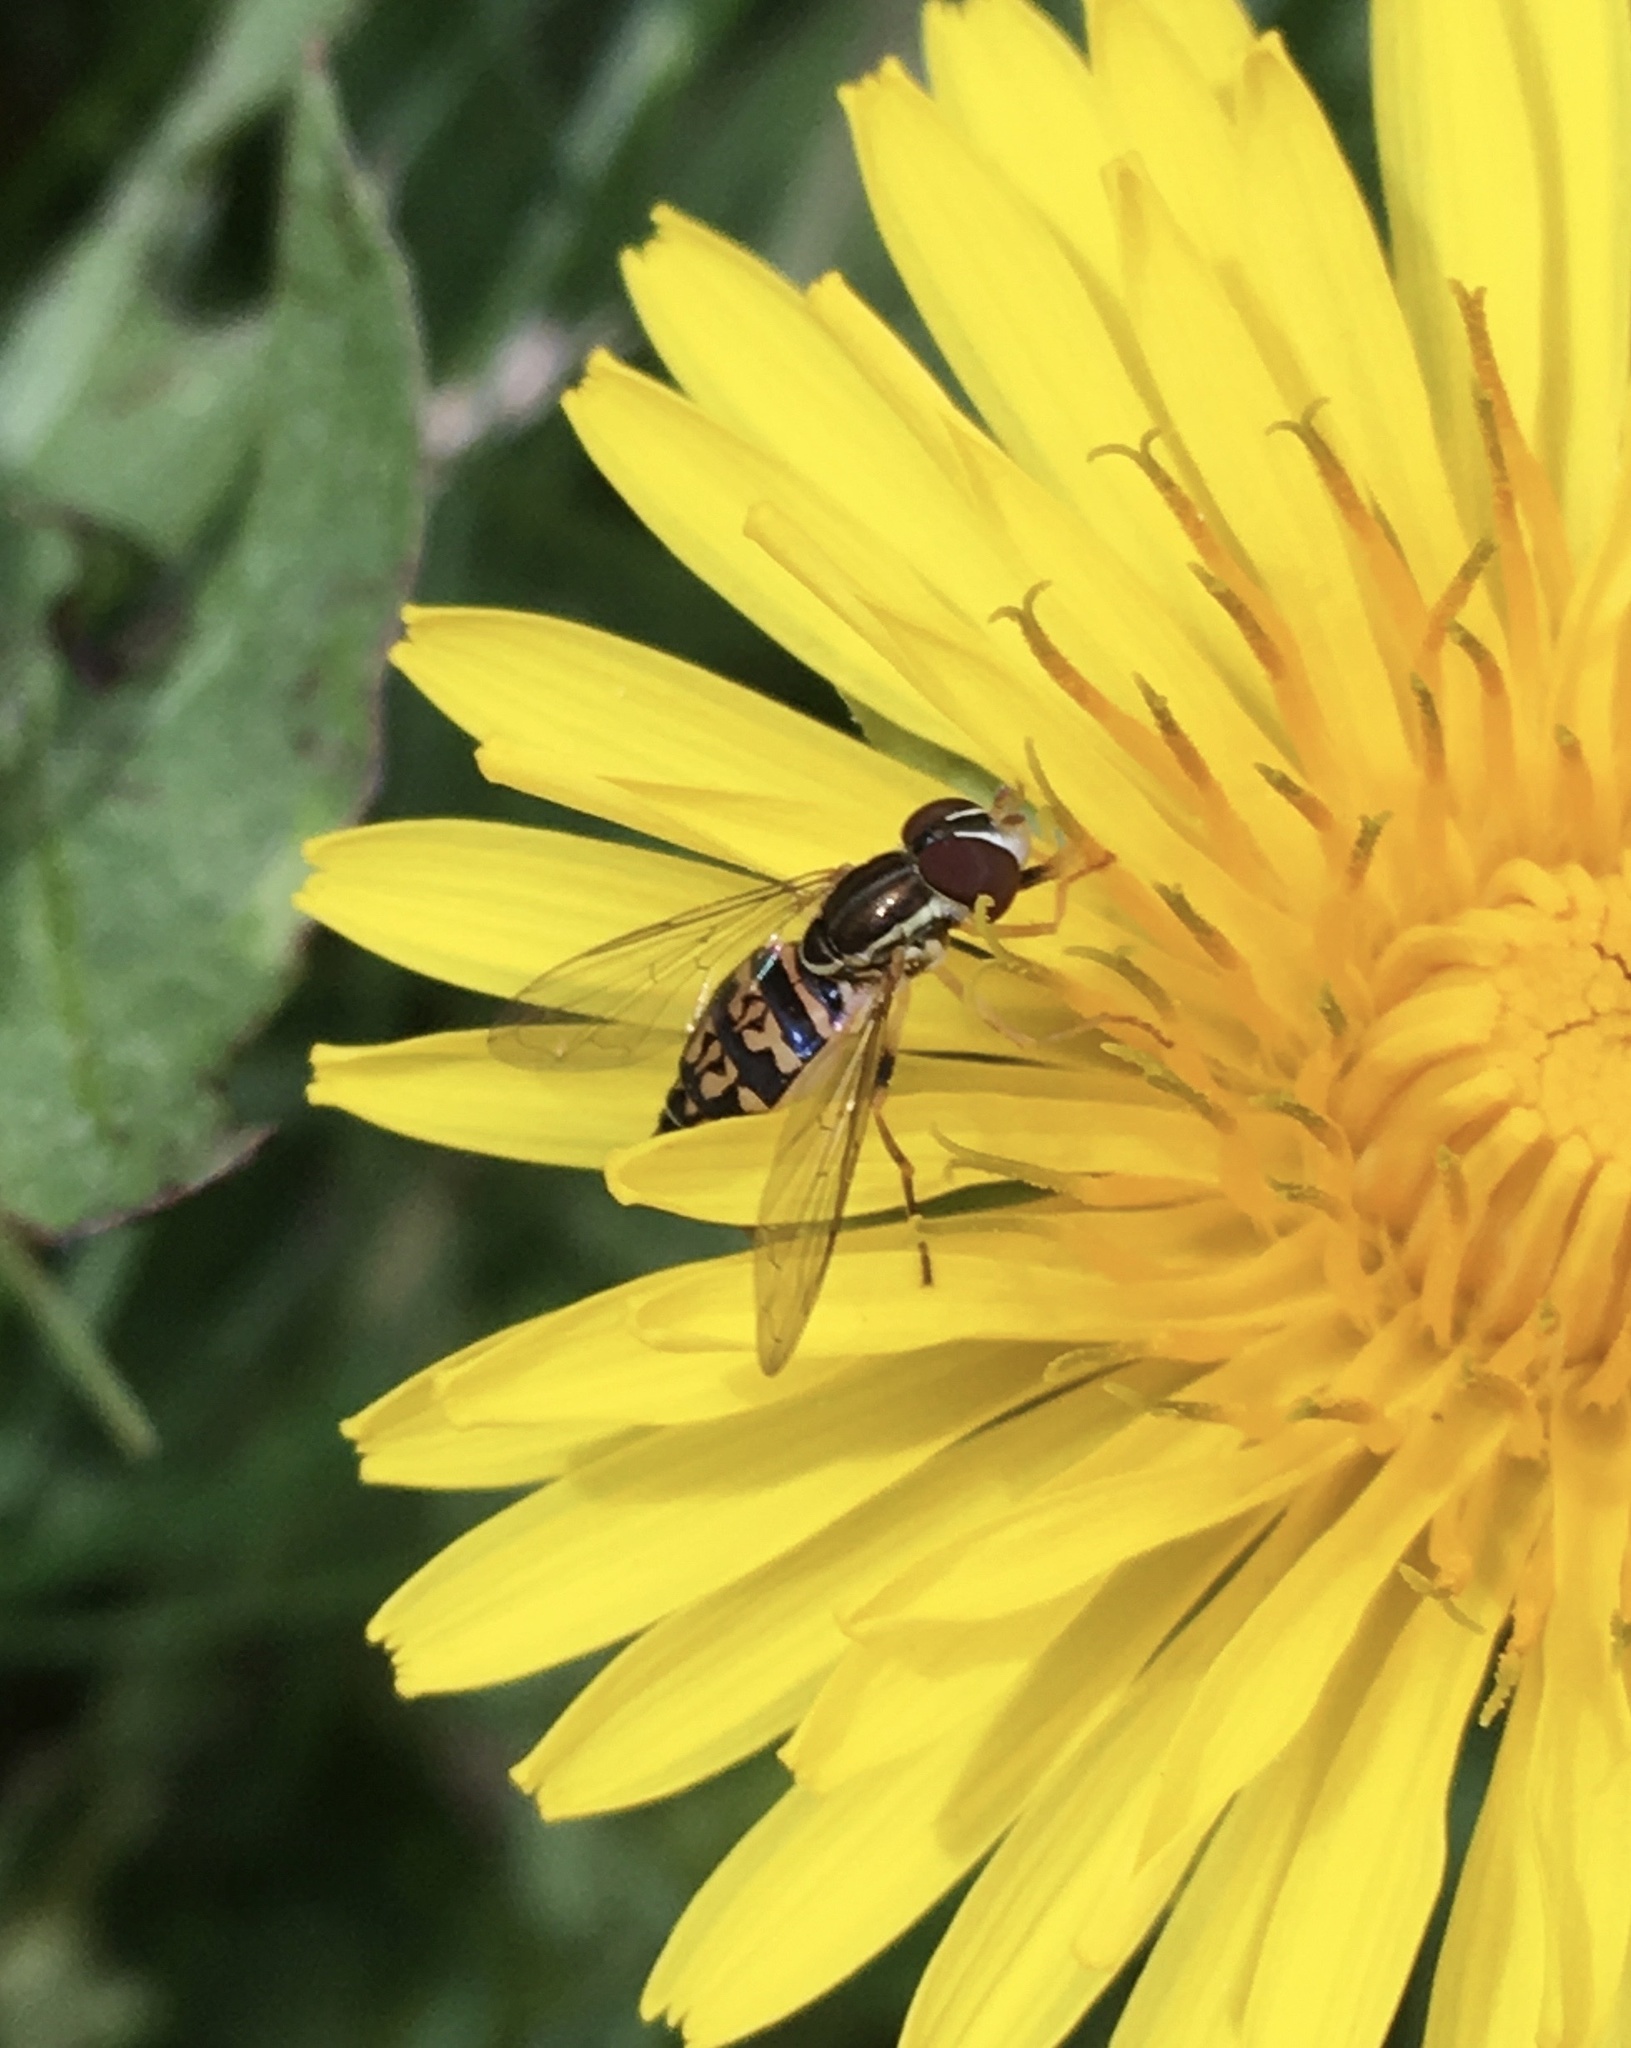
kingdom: Animalia
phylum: Arthropoda
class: Insecta
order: Diptera
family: Syrphidae
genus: Toxomerus
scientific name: Toxomerus geminatus
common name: Eastern calligrapher
